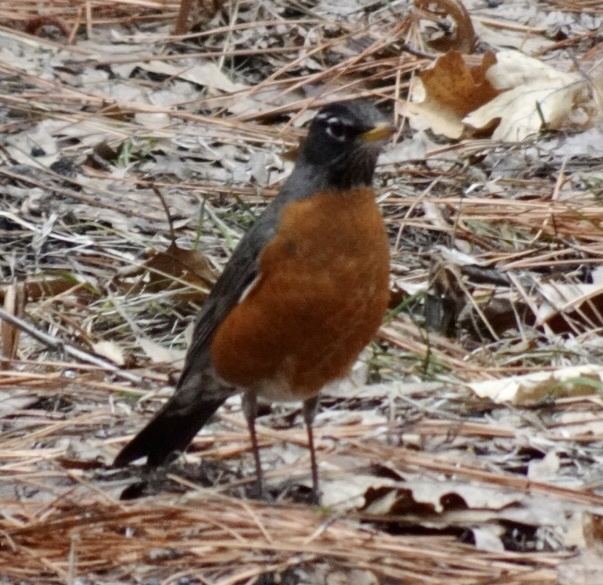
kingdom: Animalia
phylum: Chordata
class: Aves
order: Passeriformes
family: Turdidae
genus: Turdus
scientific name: Turdus migratorius
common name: American robin
